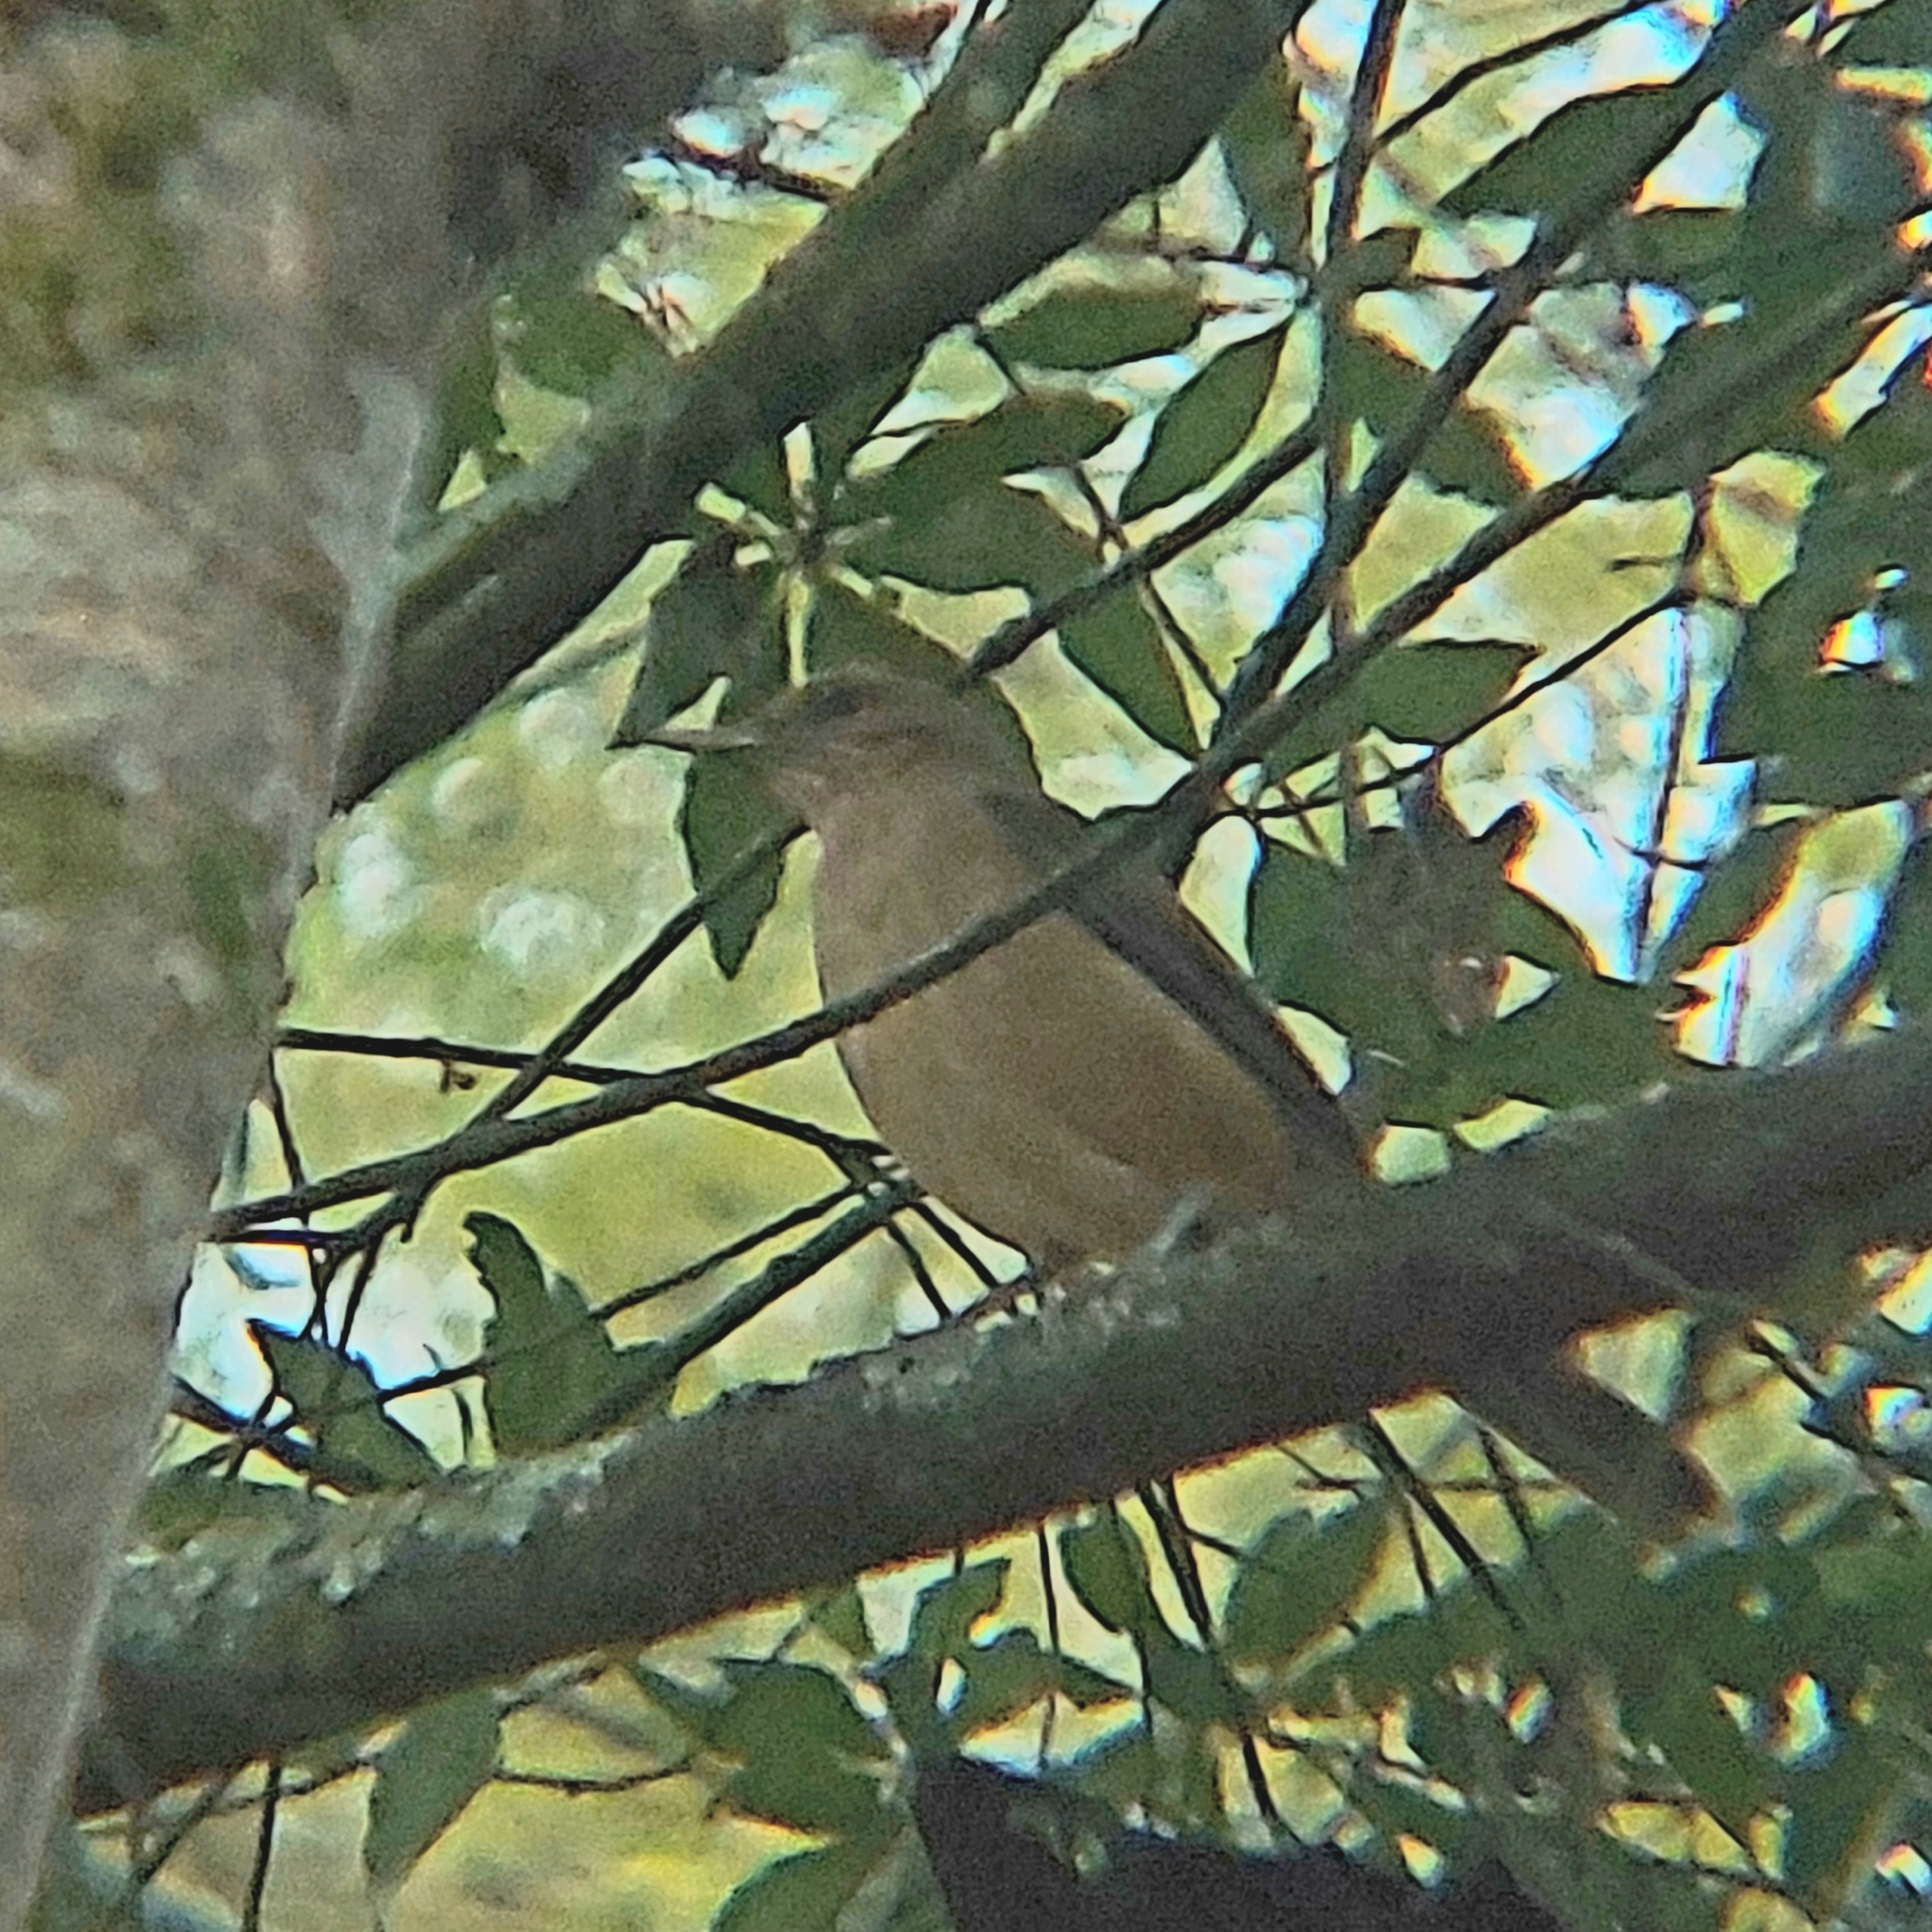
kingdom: Animalia
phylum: Chordata
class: Aves
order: Passeriformes
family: Turdidae
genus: Turdus
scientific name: Turdus grayi
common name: Clay-colored thrush
